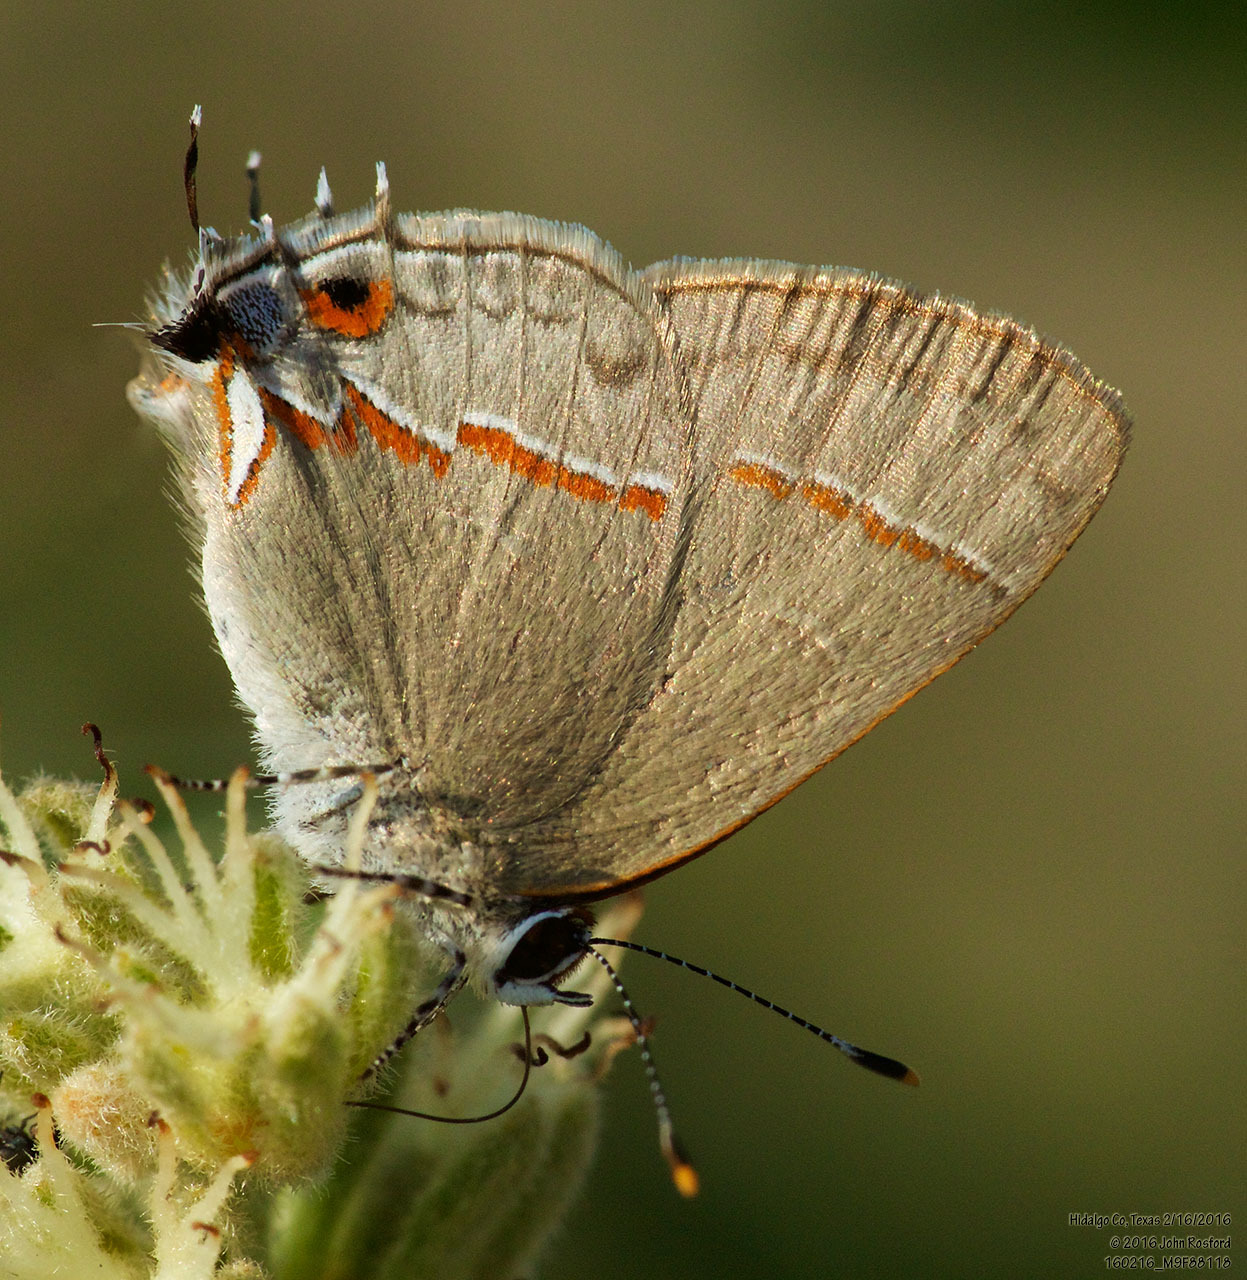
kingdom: Animalia
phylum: Arthropoda
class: Insecta
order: Lepidoptera
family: Lycaenidae
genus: Electrostrymon
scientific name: Electrostrymon endymion
